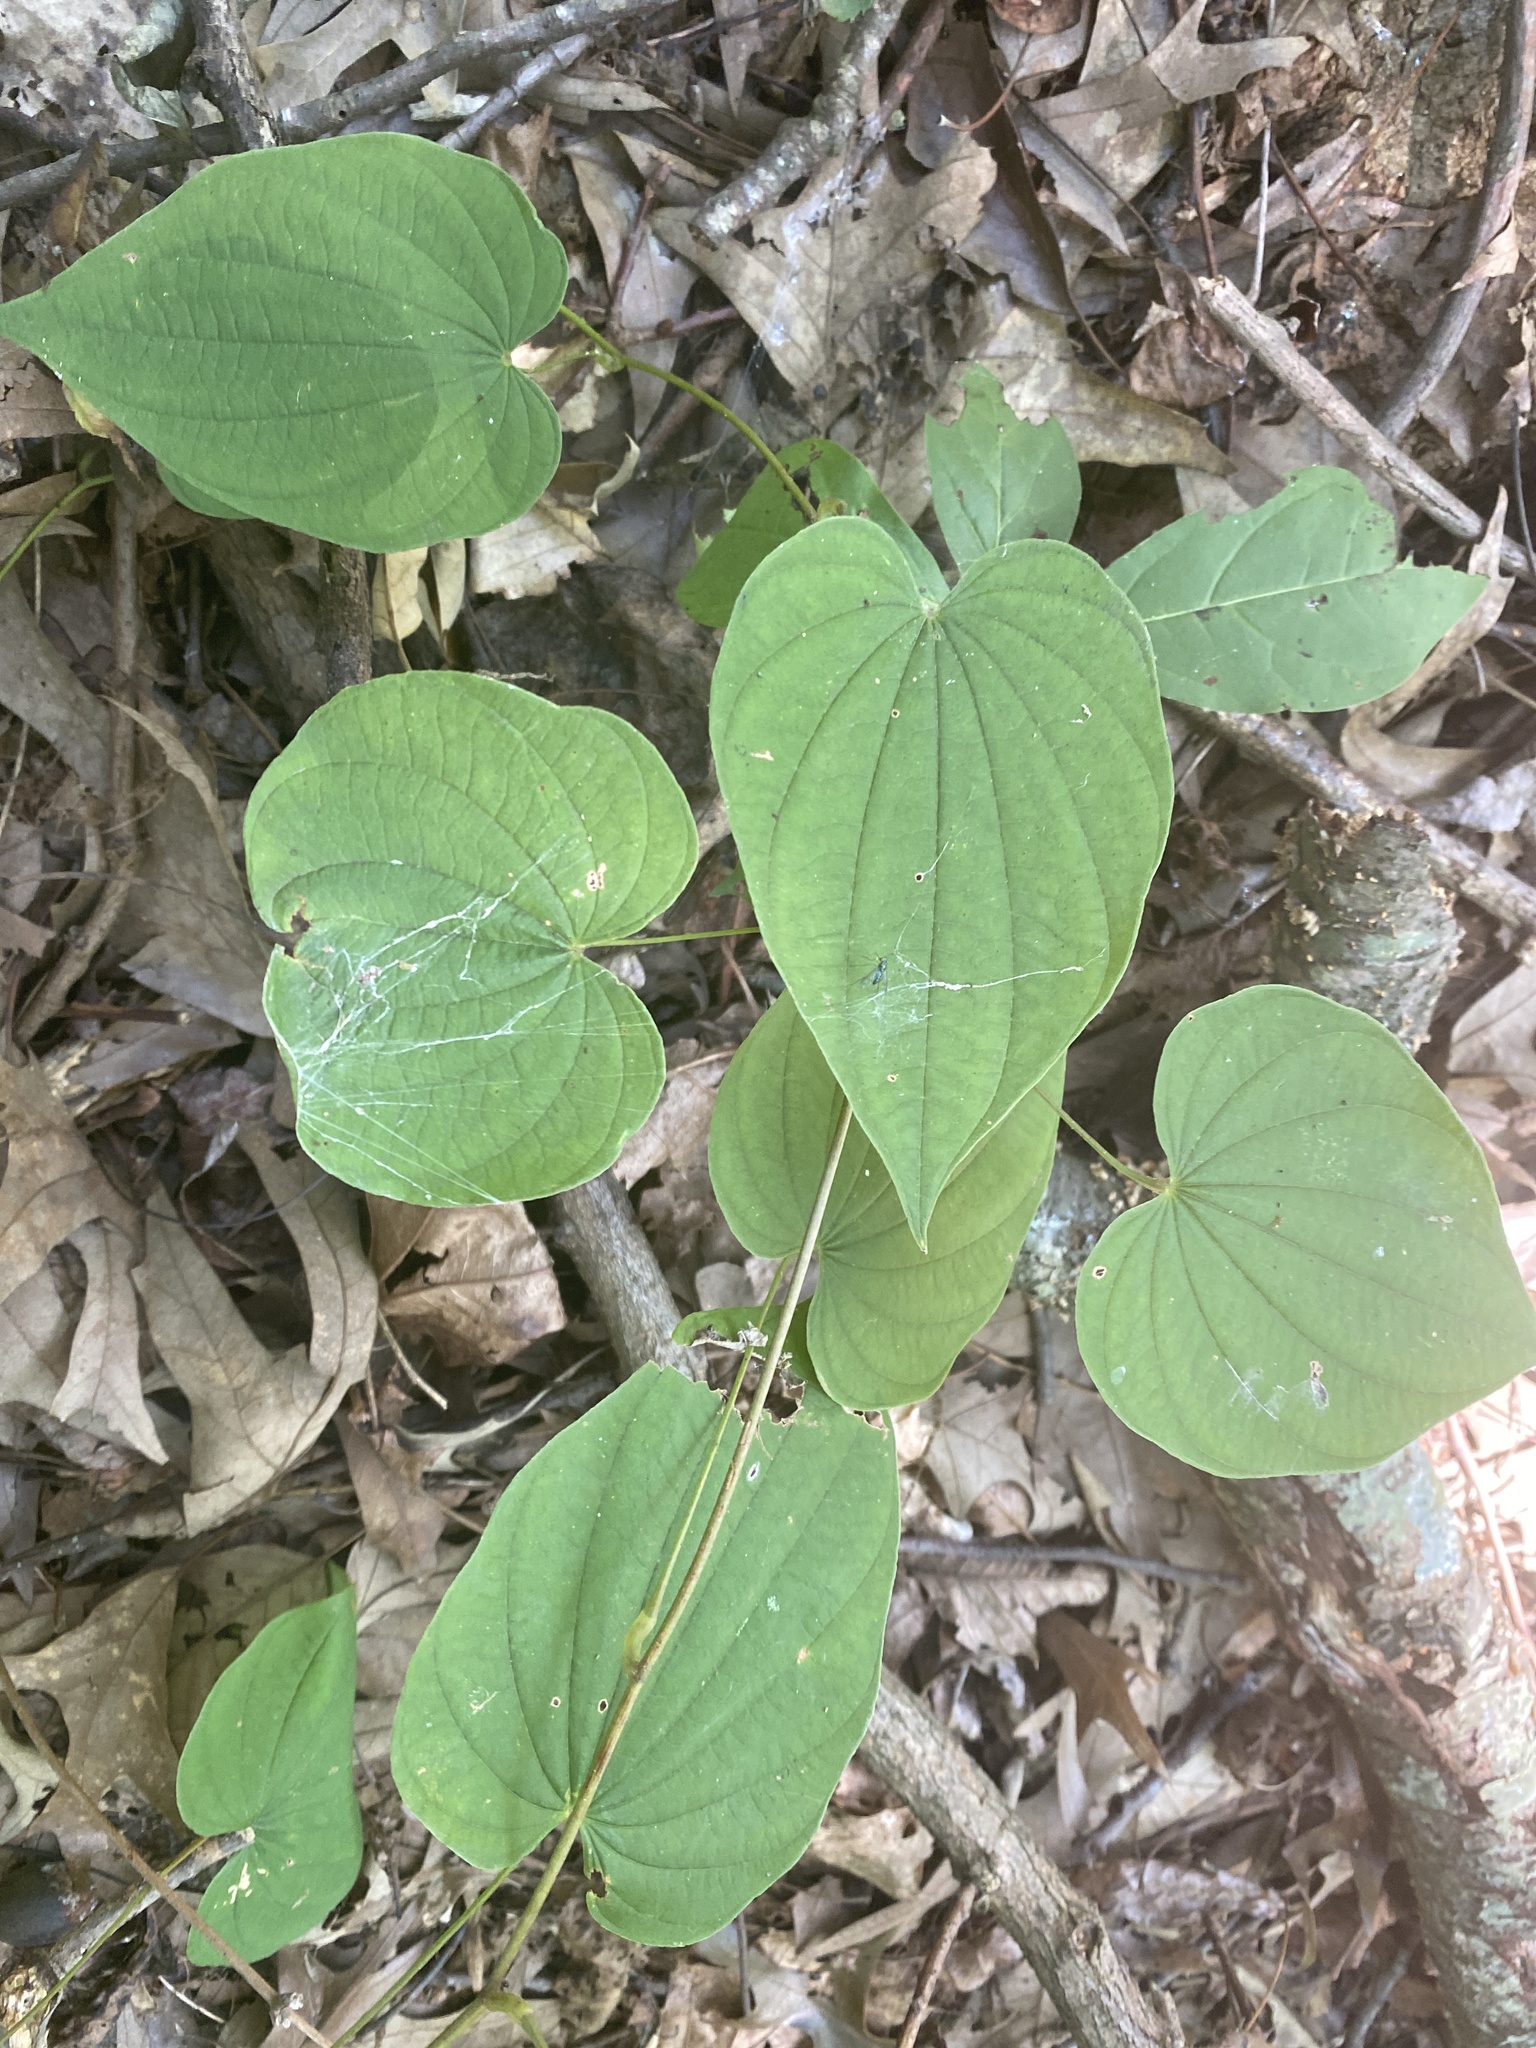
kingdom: Plantae
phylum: Tracheophyta
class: Liliopsida
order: Dioscoreales
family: Dioscoreaceae
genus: Dioscorea
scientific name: Dioscorea villosa
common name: Wild yam
